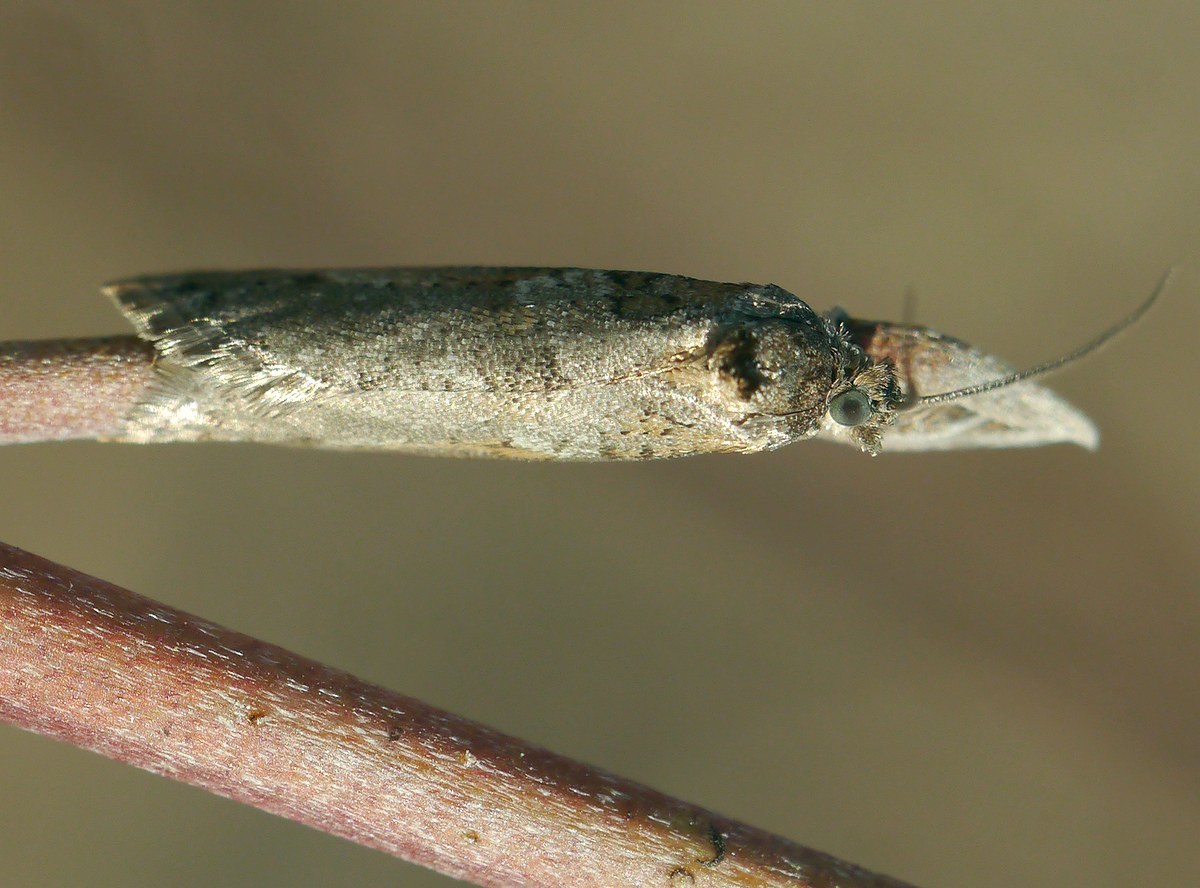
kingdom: Animalia
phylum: Arthropoda
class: Insecta
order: Lepidoptera
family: Tortricidae
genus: Tortricodes
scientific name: Tortricodes alternella
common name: Winter shade
